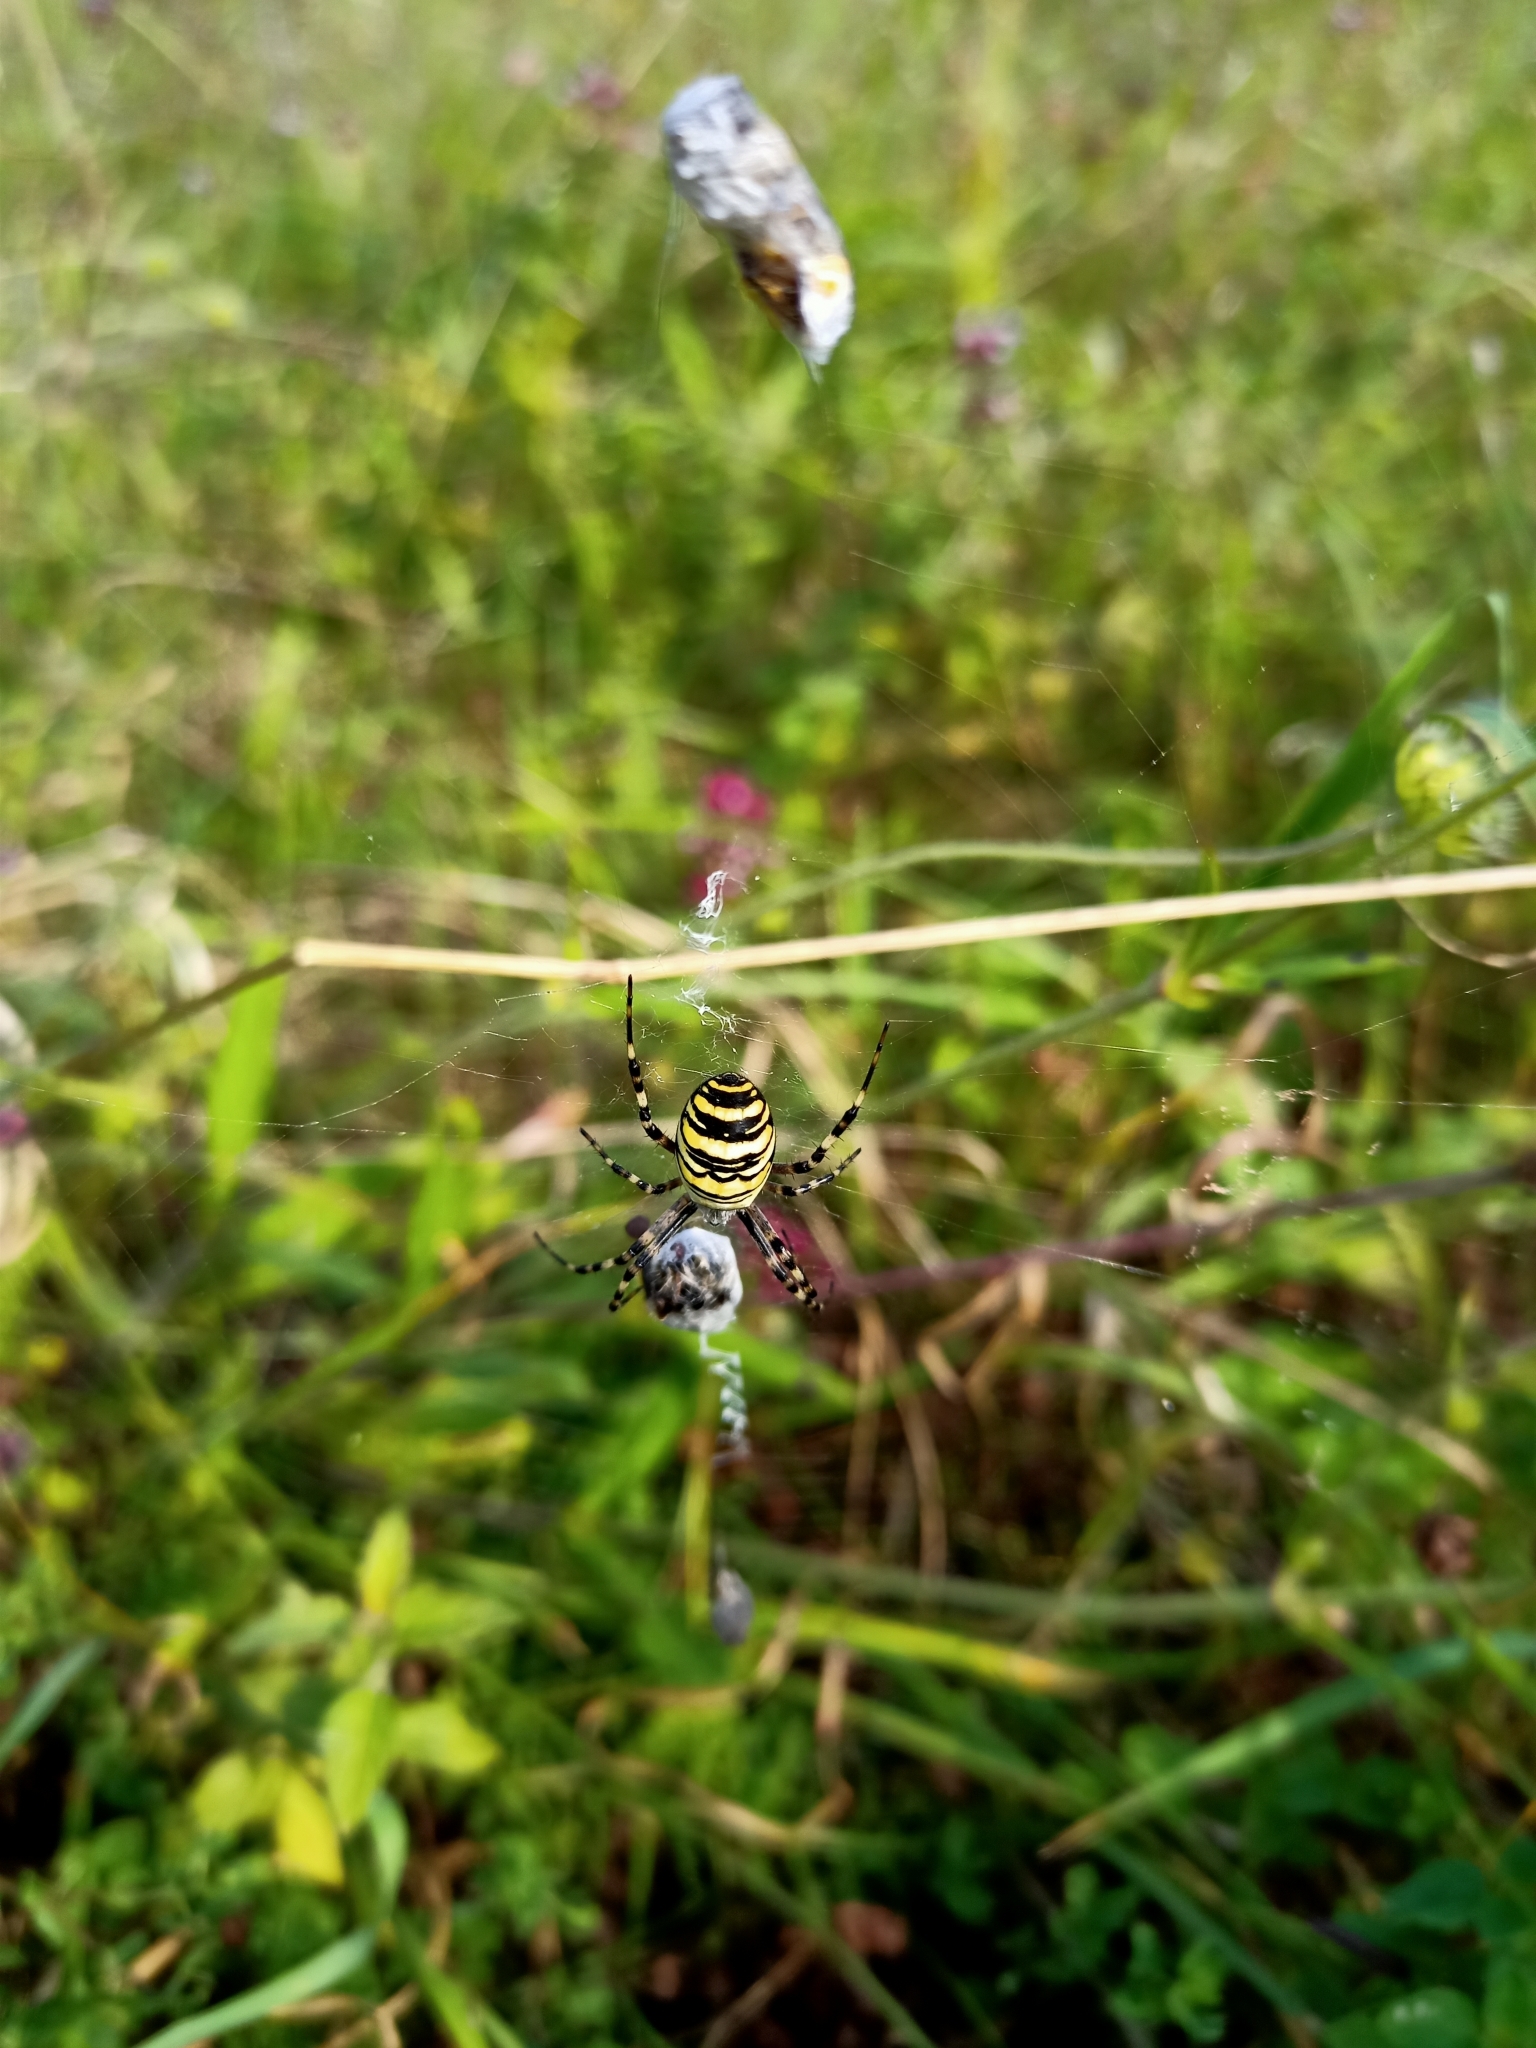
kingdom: Animalia
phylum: Arthropoda
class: Arachnida
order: Araneae
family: Araneidae
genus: Argiope
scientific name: Argiope bruennichi
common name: Wasp spider
